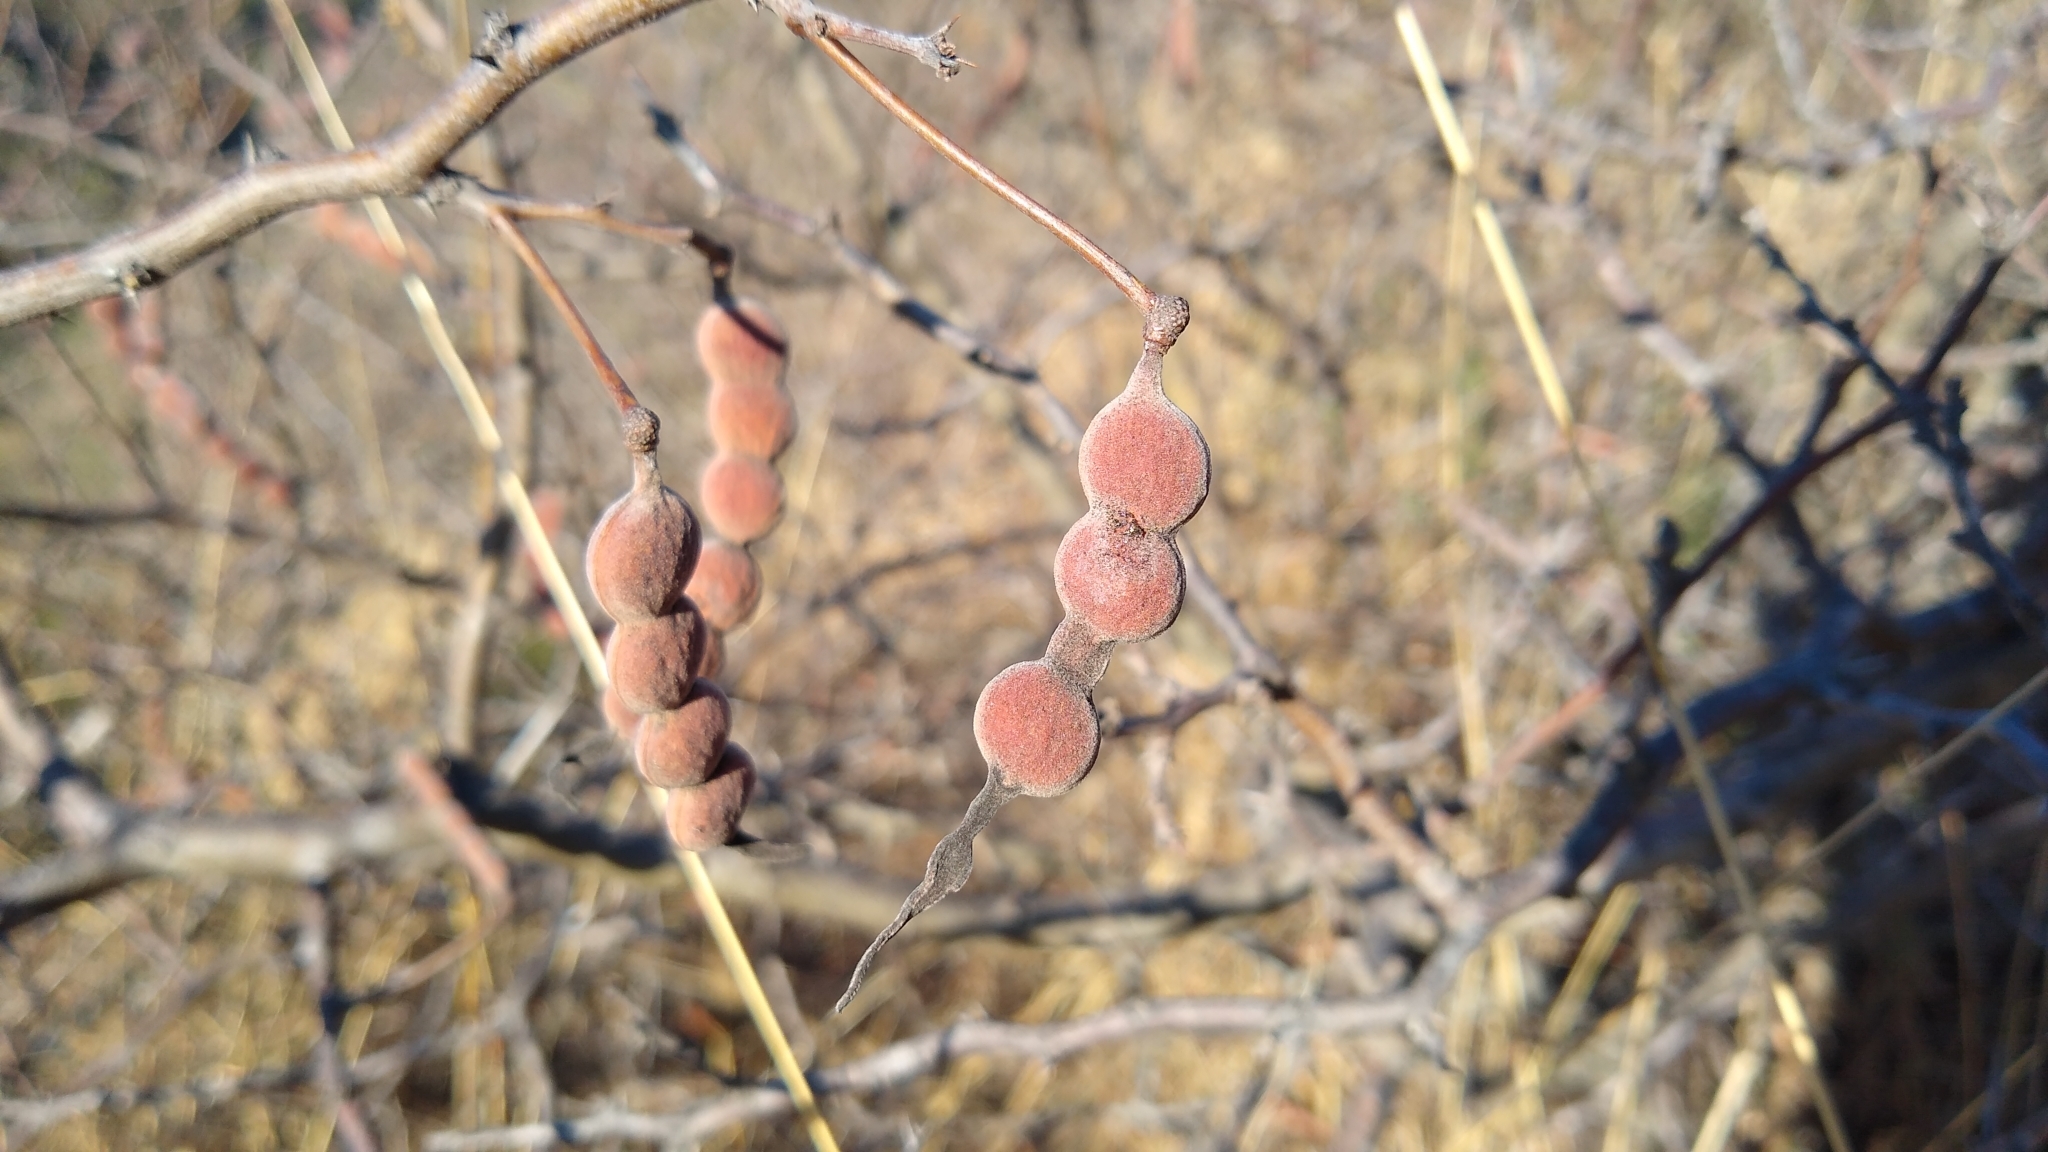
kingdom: Plantae
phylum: Tracheophyta
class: Magnoliopsida
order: Fabales
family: Fabaceae
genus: Vachellia
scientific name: Vachellia aroma
